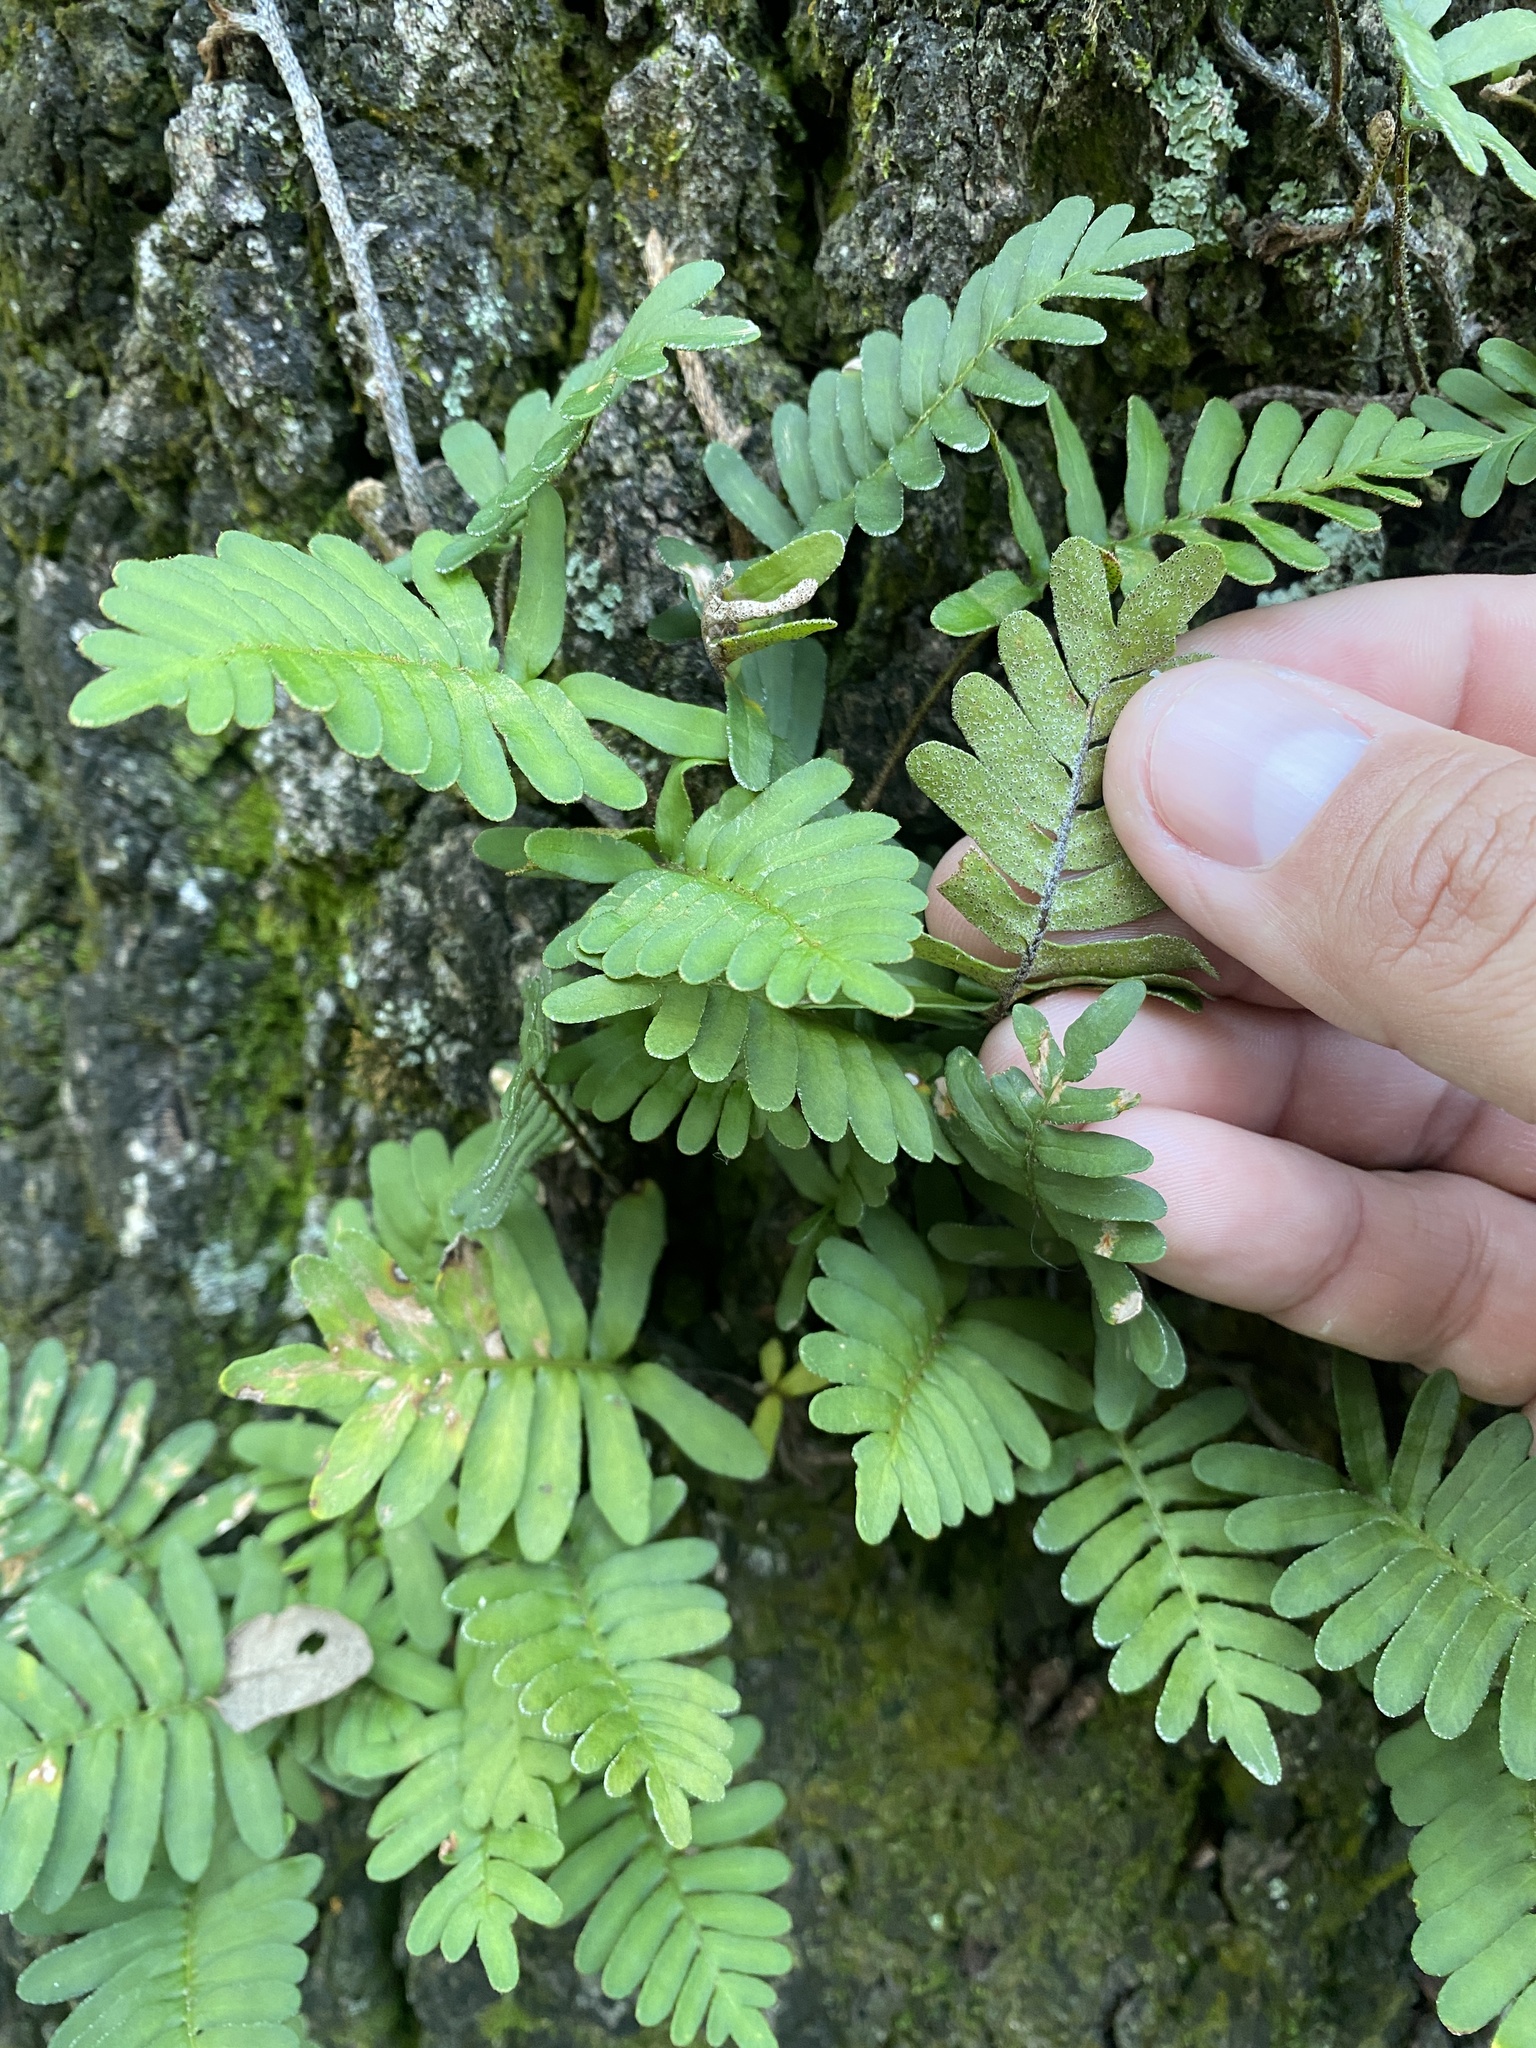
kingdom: Plantae
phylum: Tracheophyta
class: Polypodiopsida
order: Polypodiales
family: Polypodiaceae
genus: Pleopeltis
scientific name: Pleopeltis michauxiana
